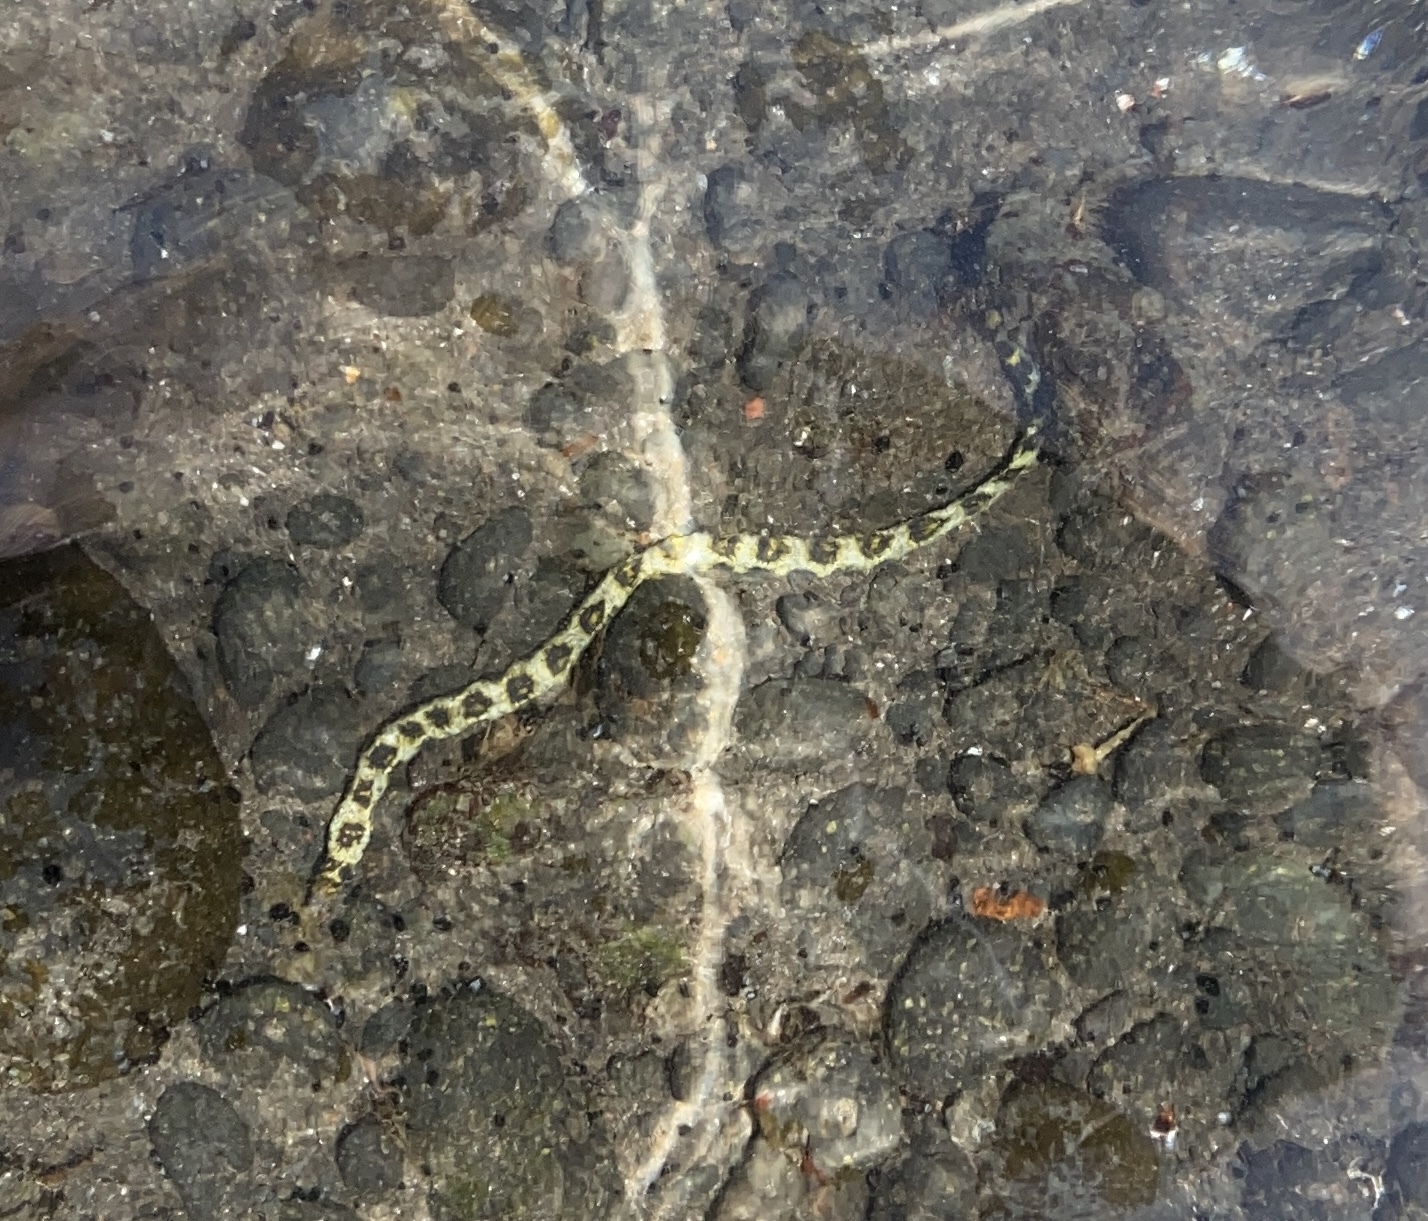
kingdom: Animalia
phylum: Chordata
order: Anguilliformes
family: Muraenidae
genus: Echidna
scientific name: Echidna nebulosa
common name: Snowflake moray
